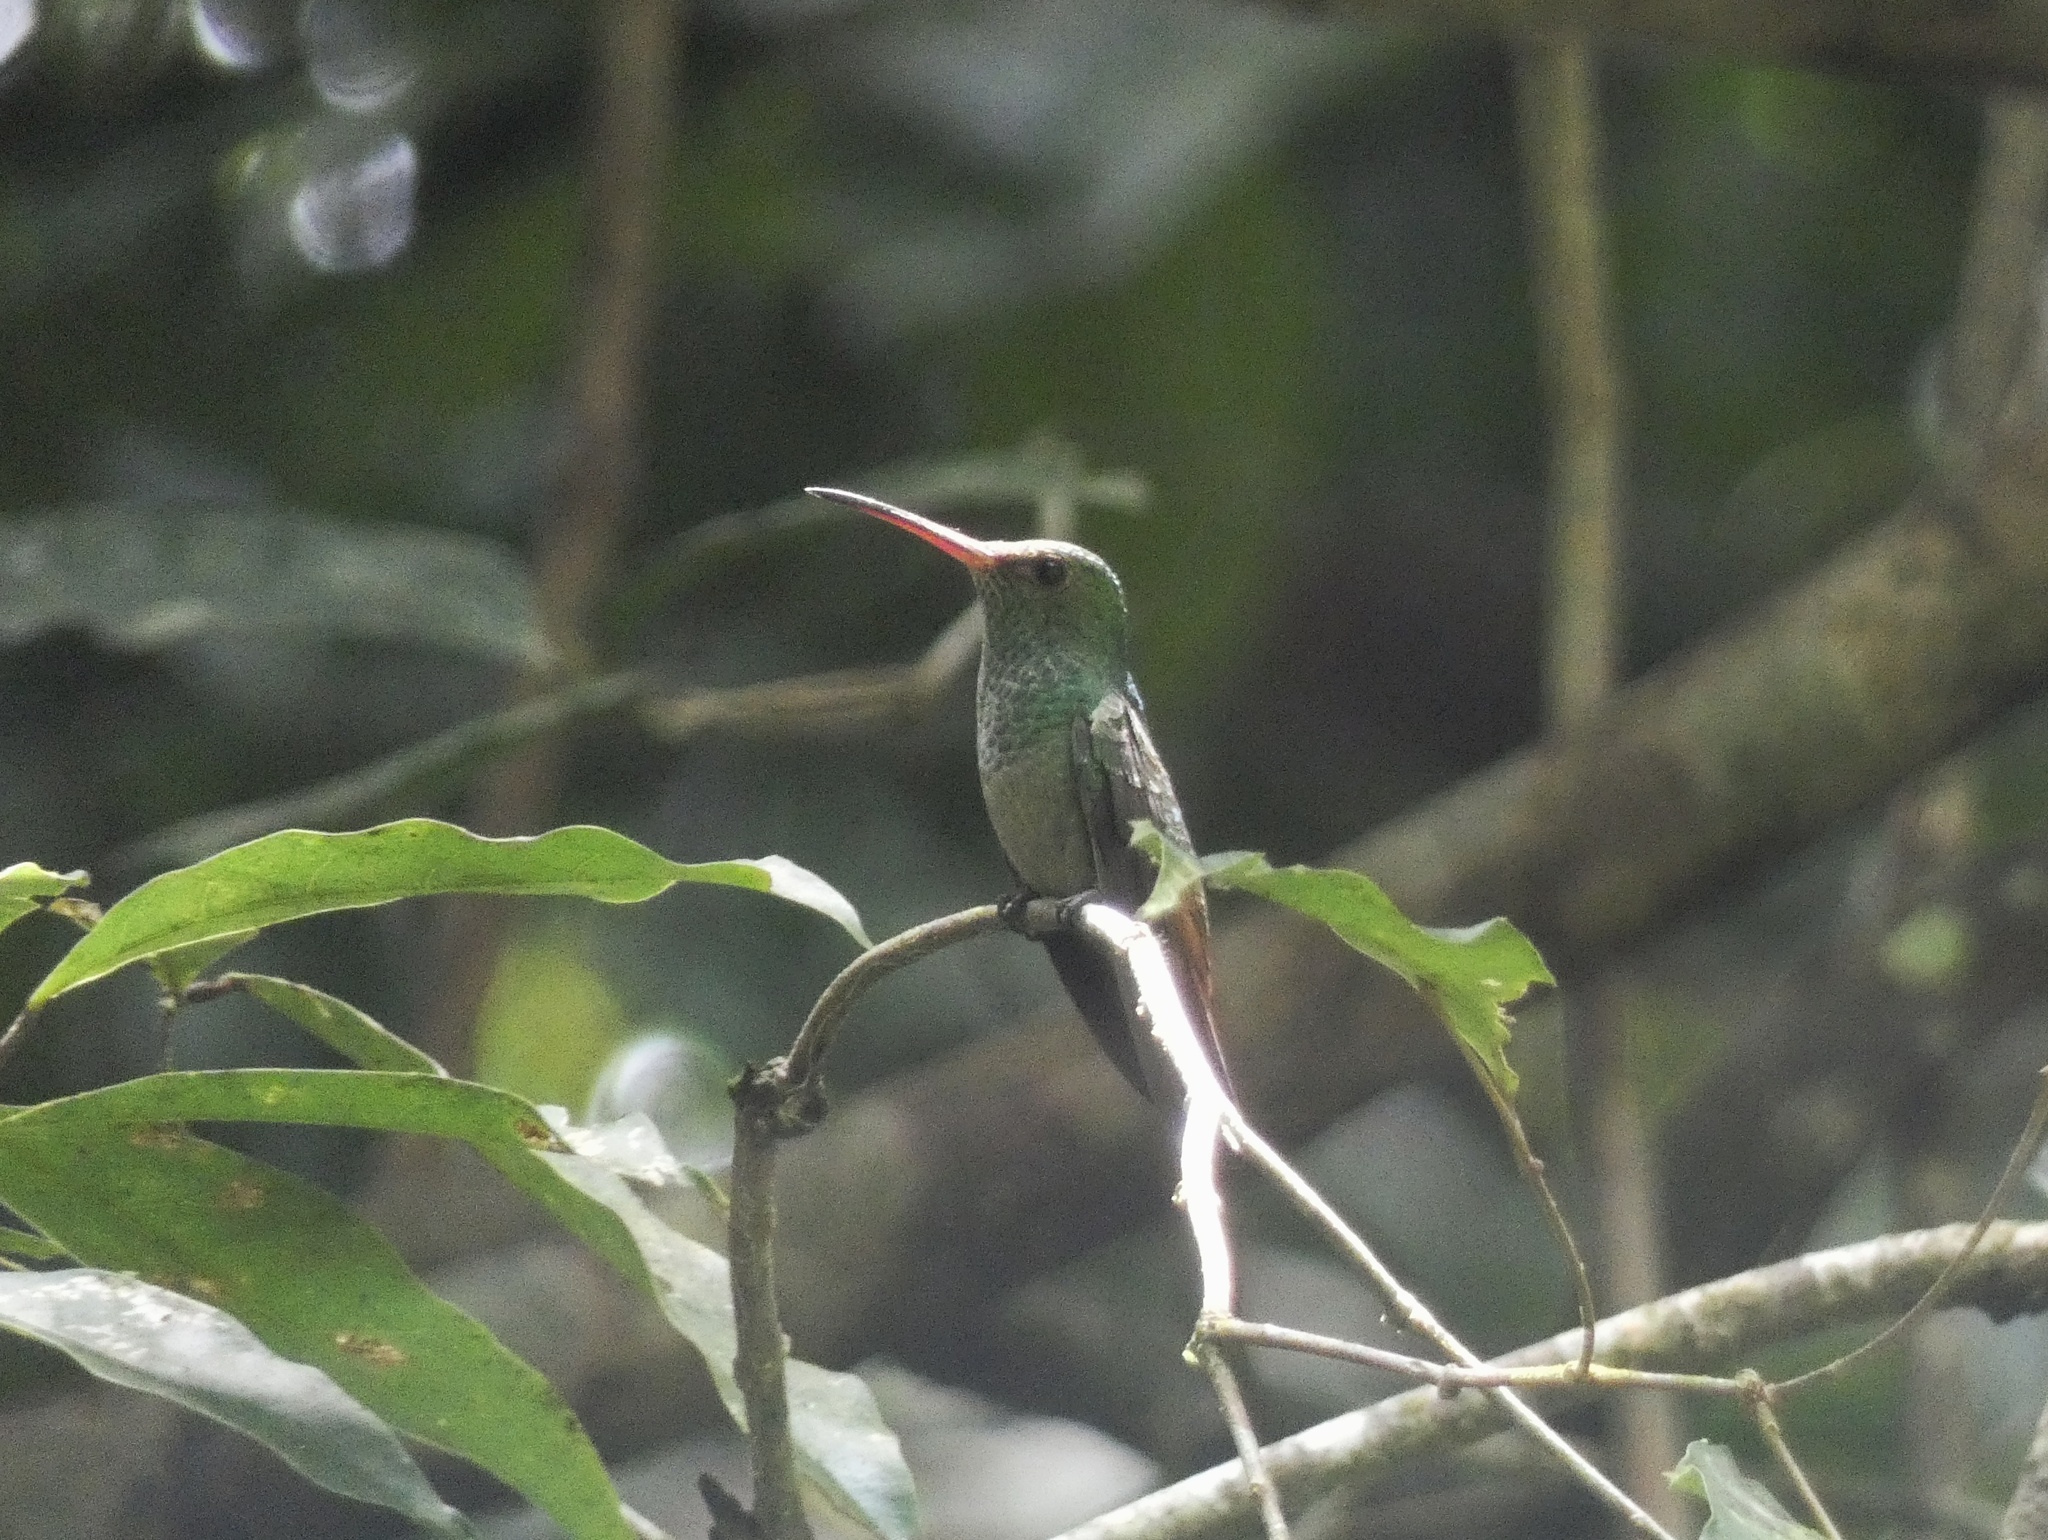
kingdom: Animalia
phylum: Chordata
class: Aves
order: Apodiformes
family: Trochilidae
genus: Amazilia
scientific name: Amazilia tzacatl
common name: Rufous-tailed hummingbird
